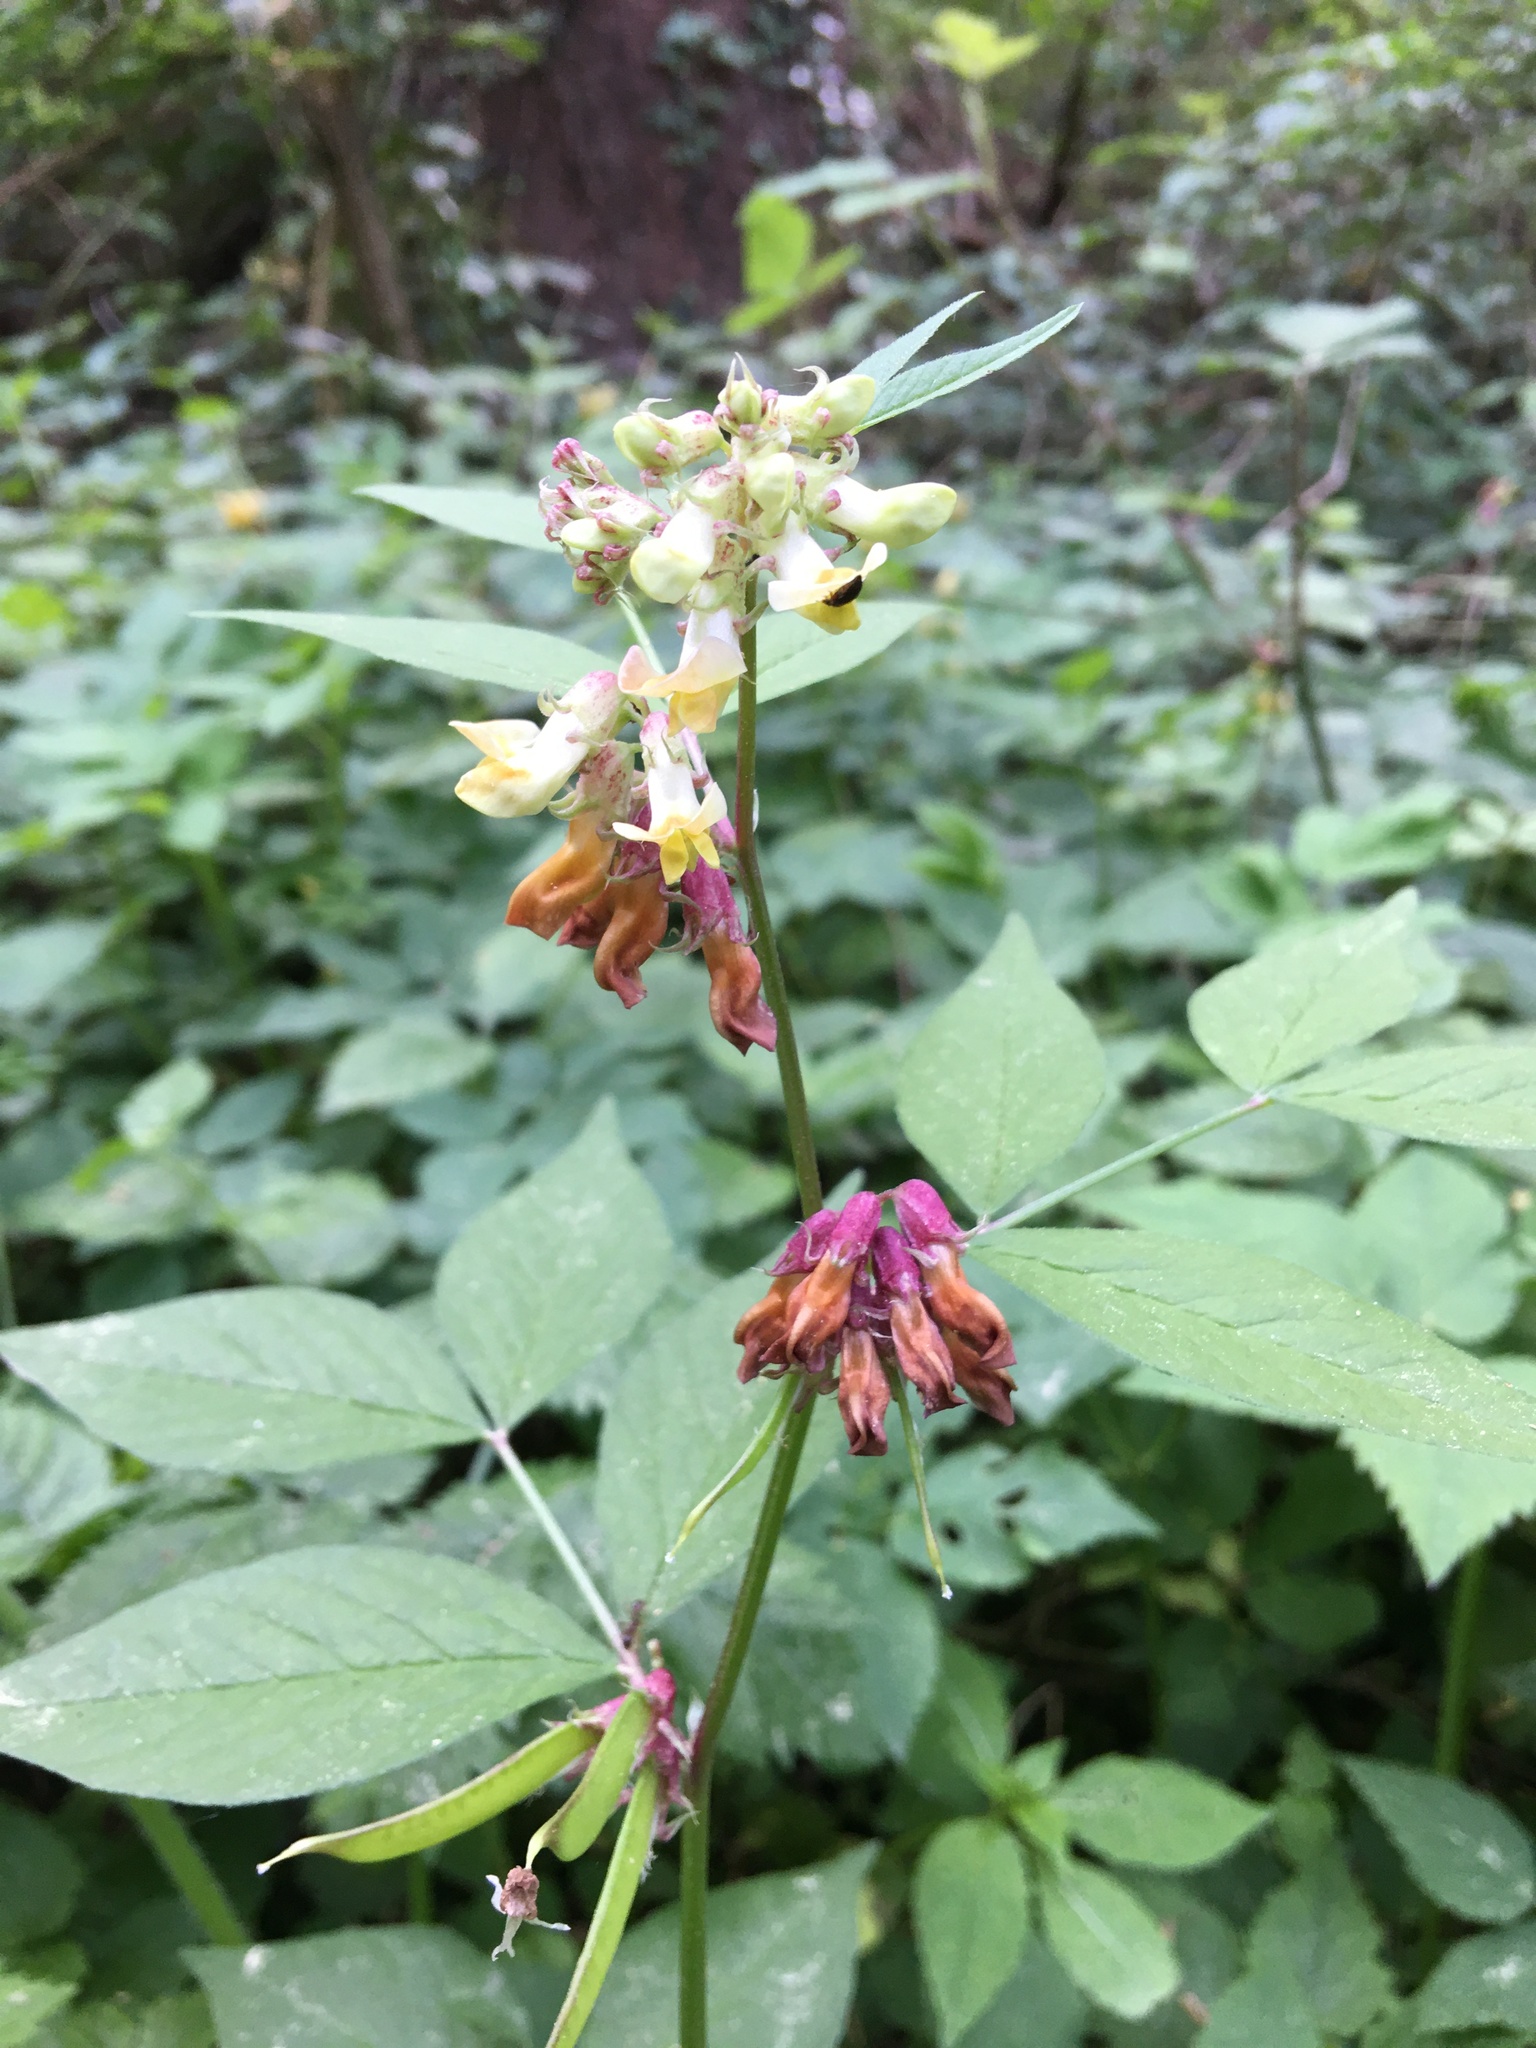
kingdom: Plantae
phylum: Tracheophyta
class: Magnoliopsida
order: Fabales
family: Fabaceae
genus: Vicia
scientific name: Vicia oroboides
